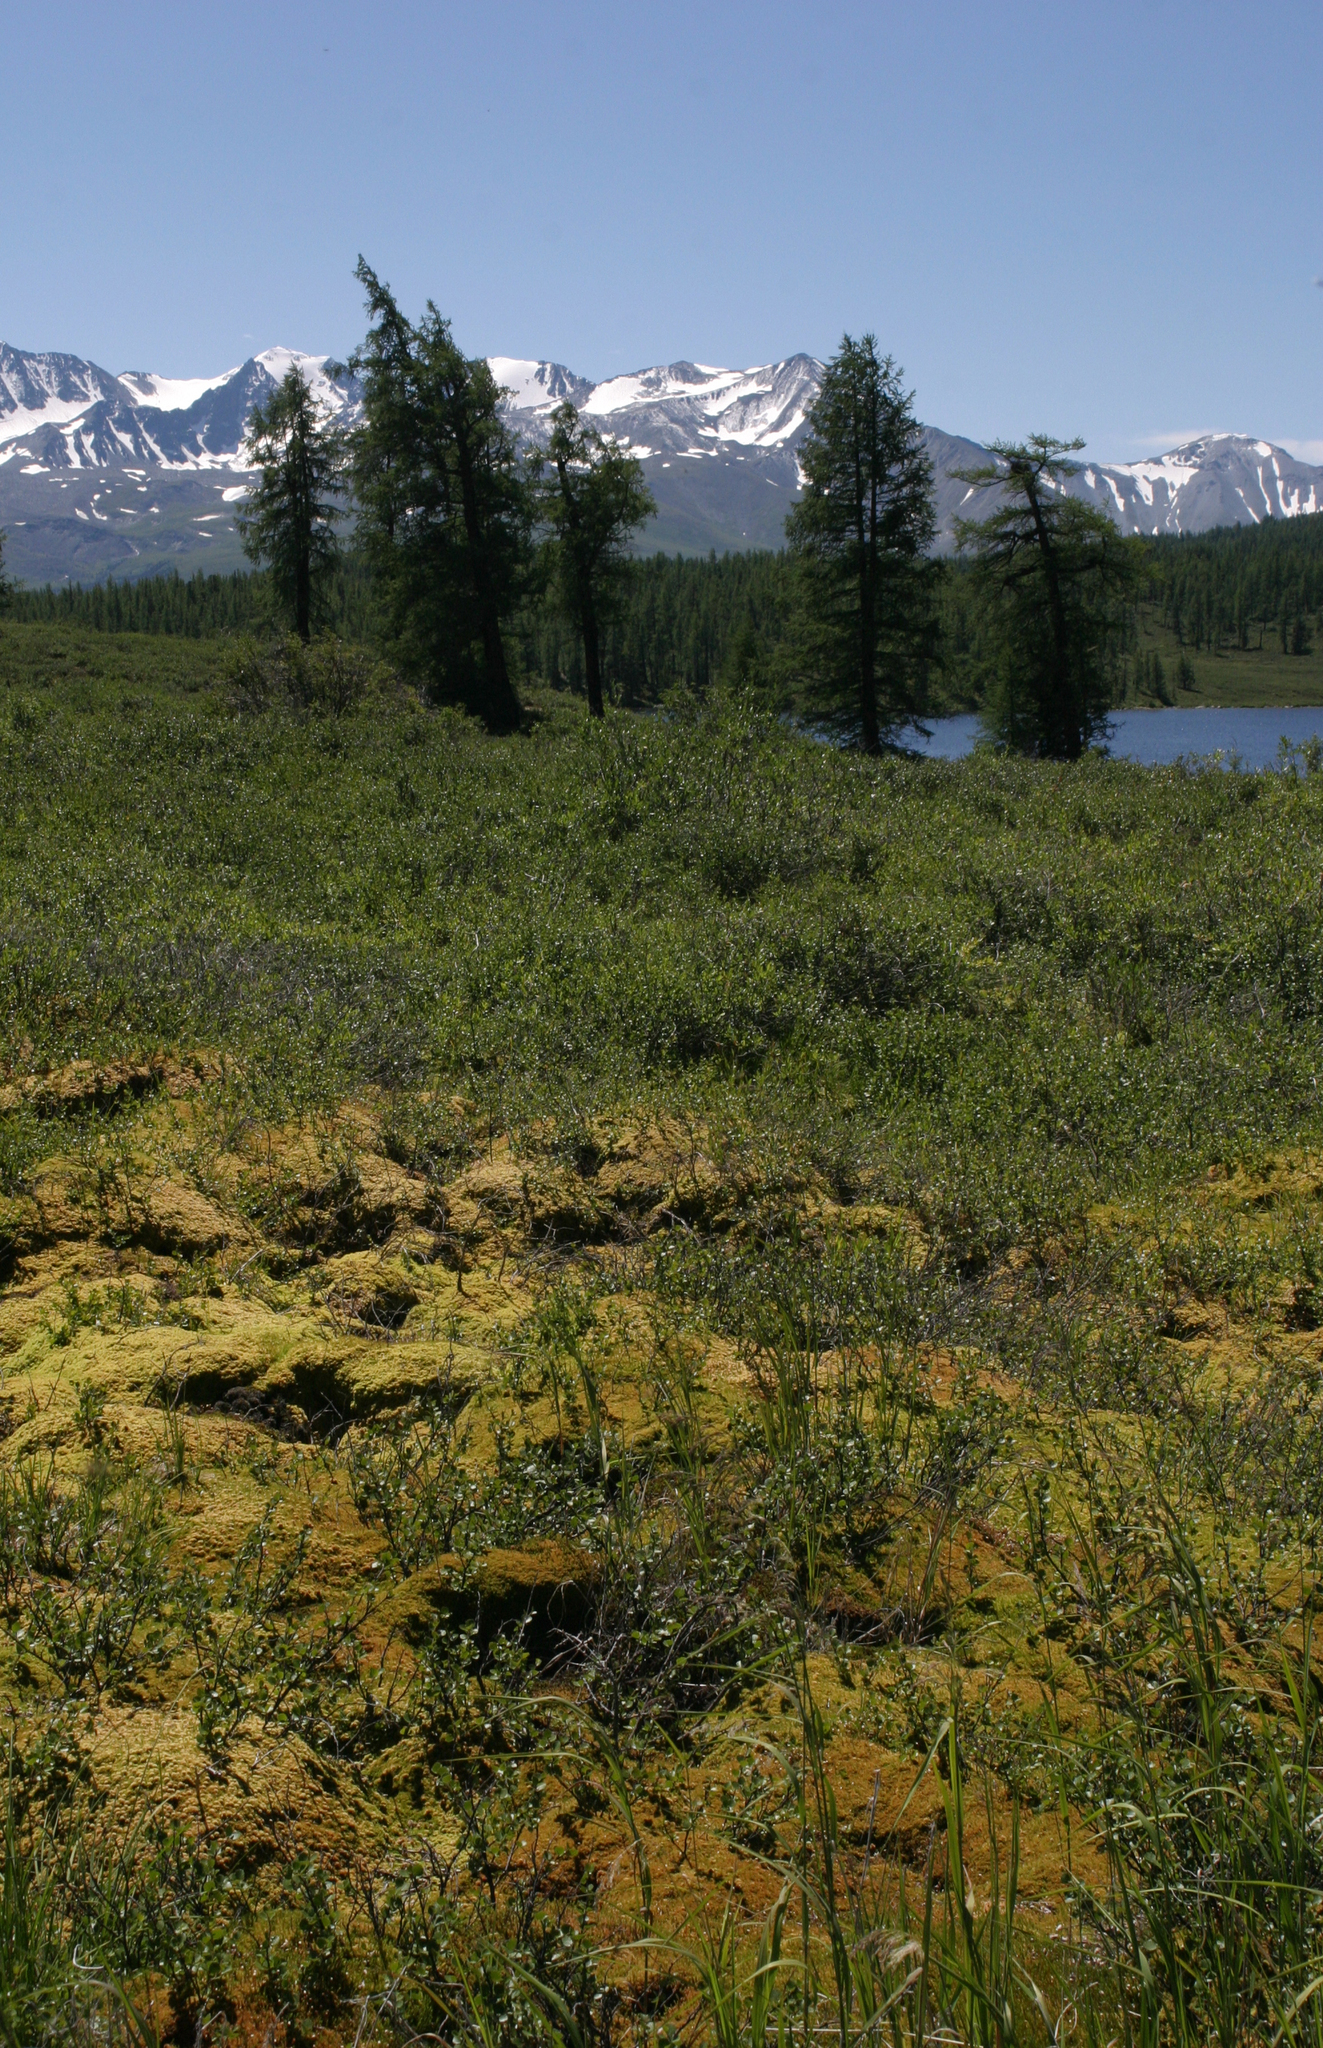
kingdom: Plantae
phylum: Tracheophyta
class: Pinopsida
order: Pinales
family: Pinaceae
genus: Larix
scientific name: Larix sibirica
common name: Siberian larch
